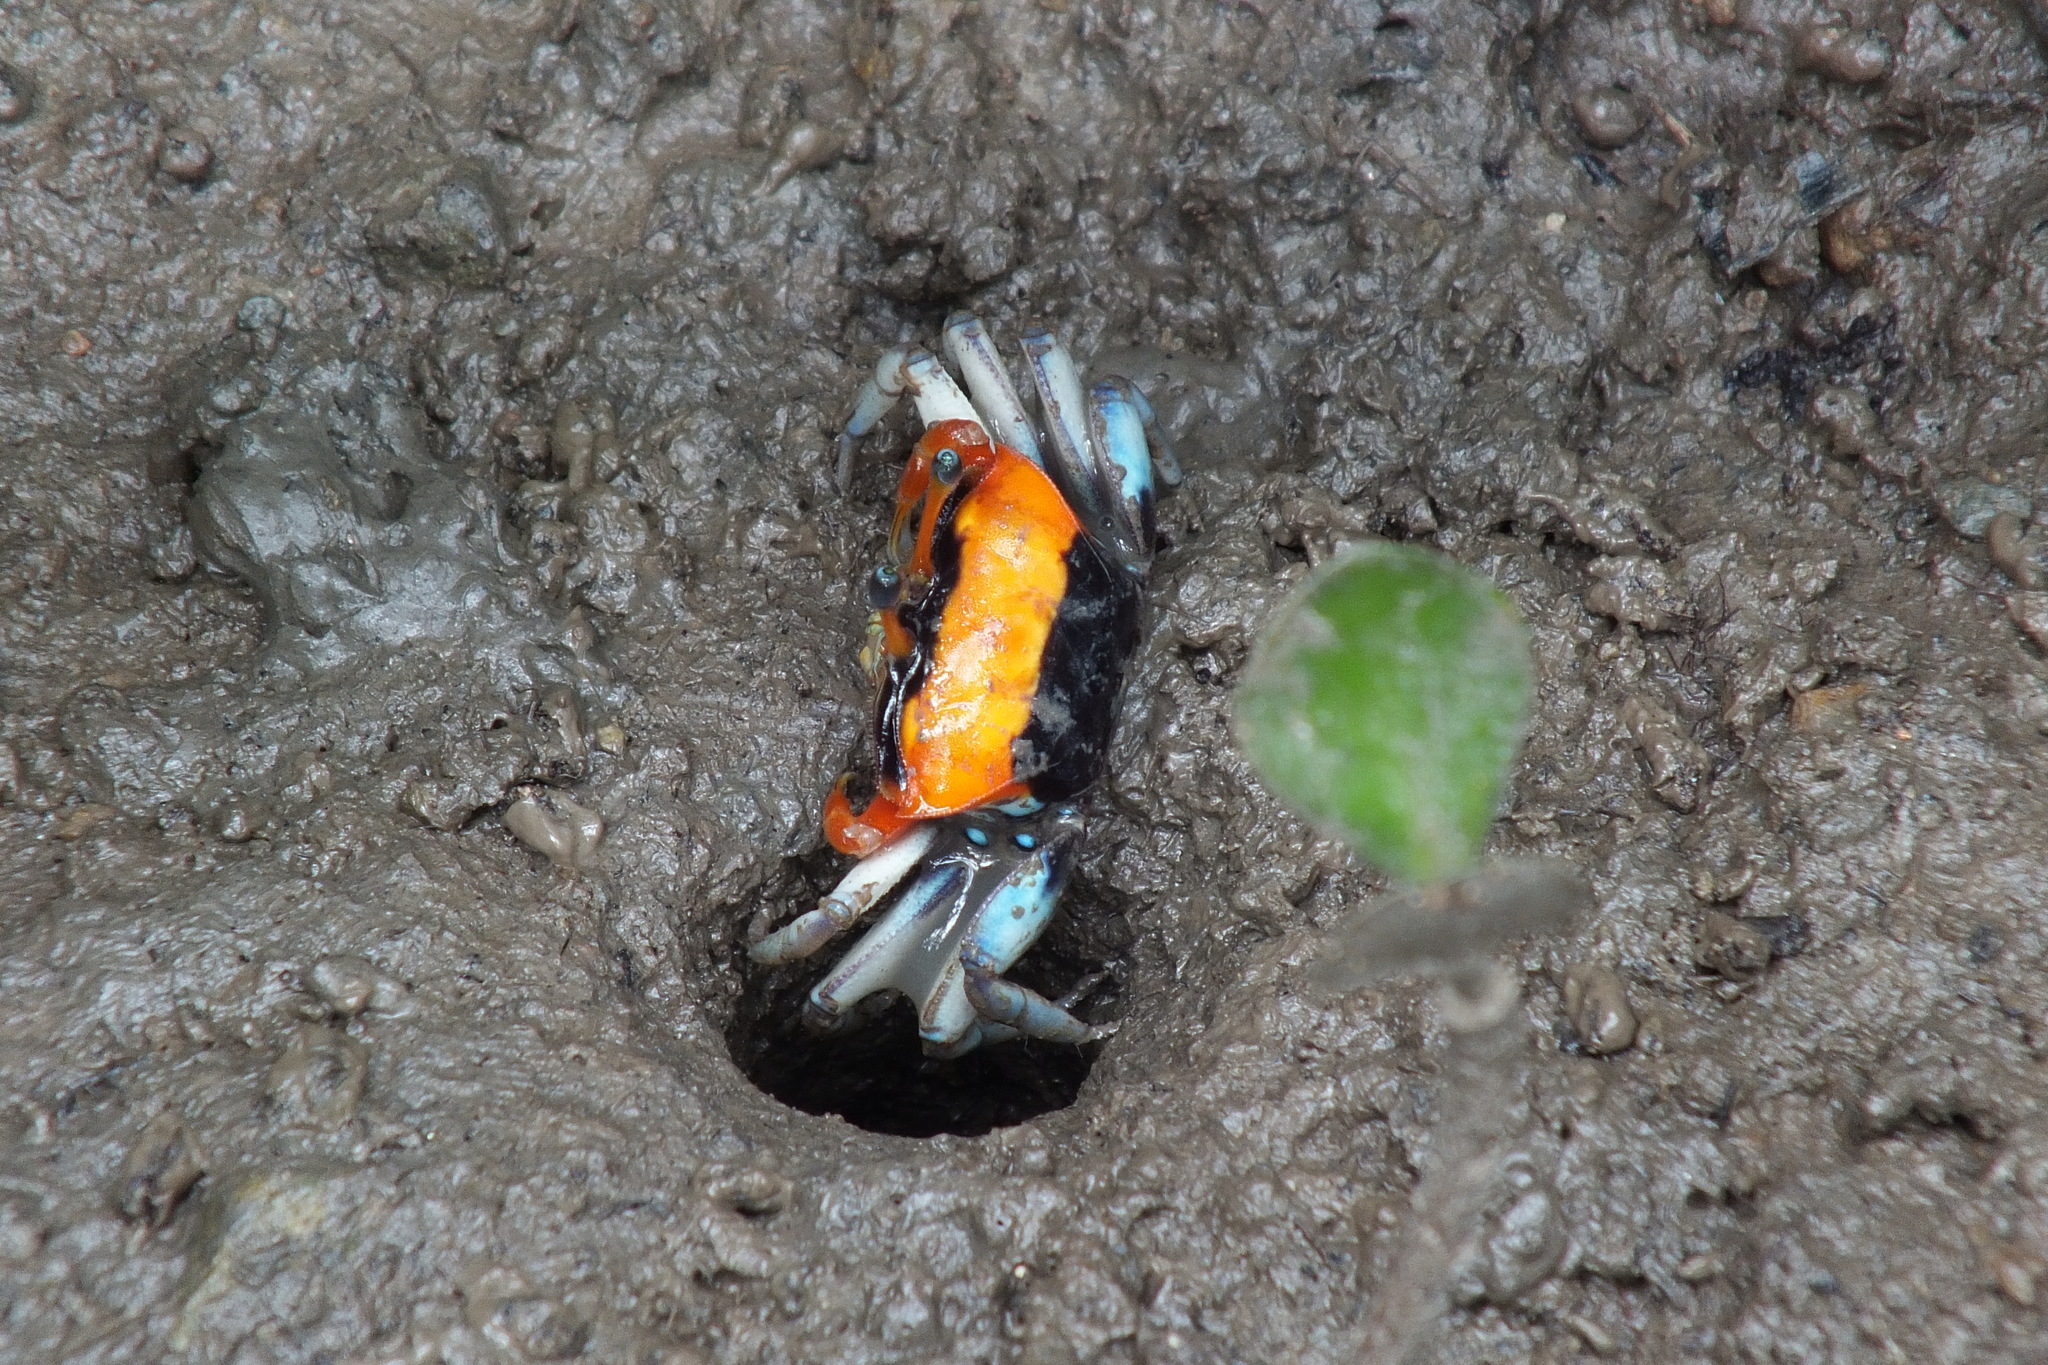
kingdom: Animalia
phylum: Arthropoda
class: Malacostraca
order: Decapoda
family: Ocypodidae
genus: Tubuca
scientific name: Tubuca coarctata
